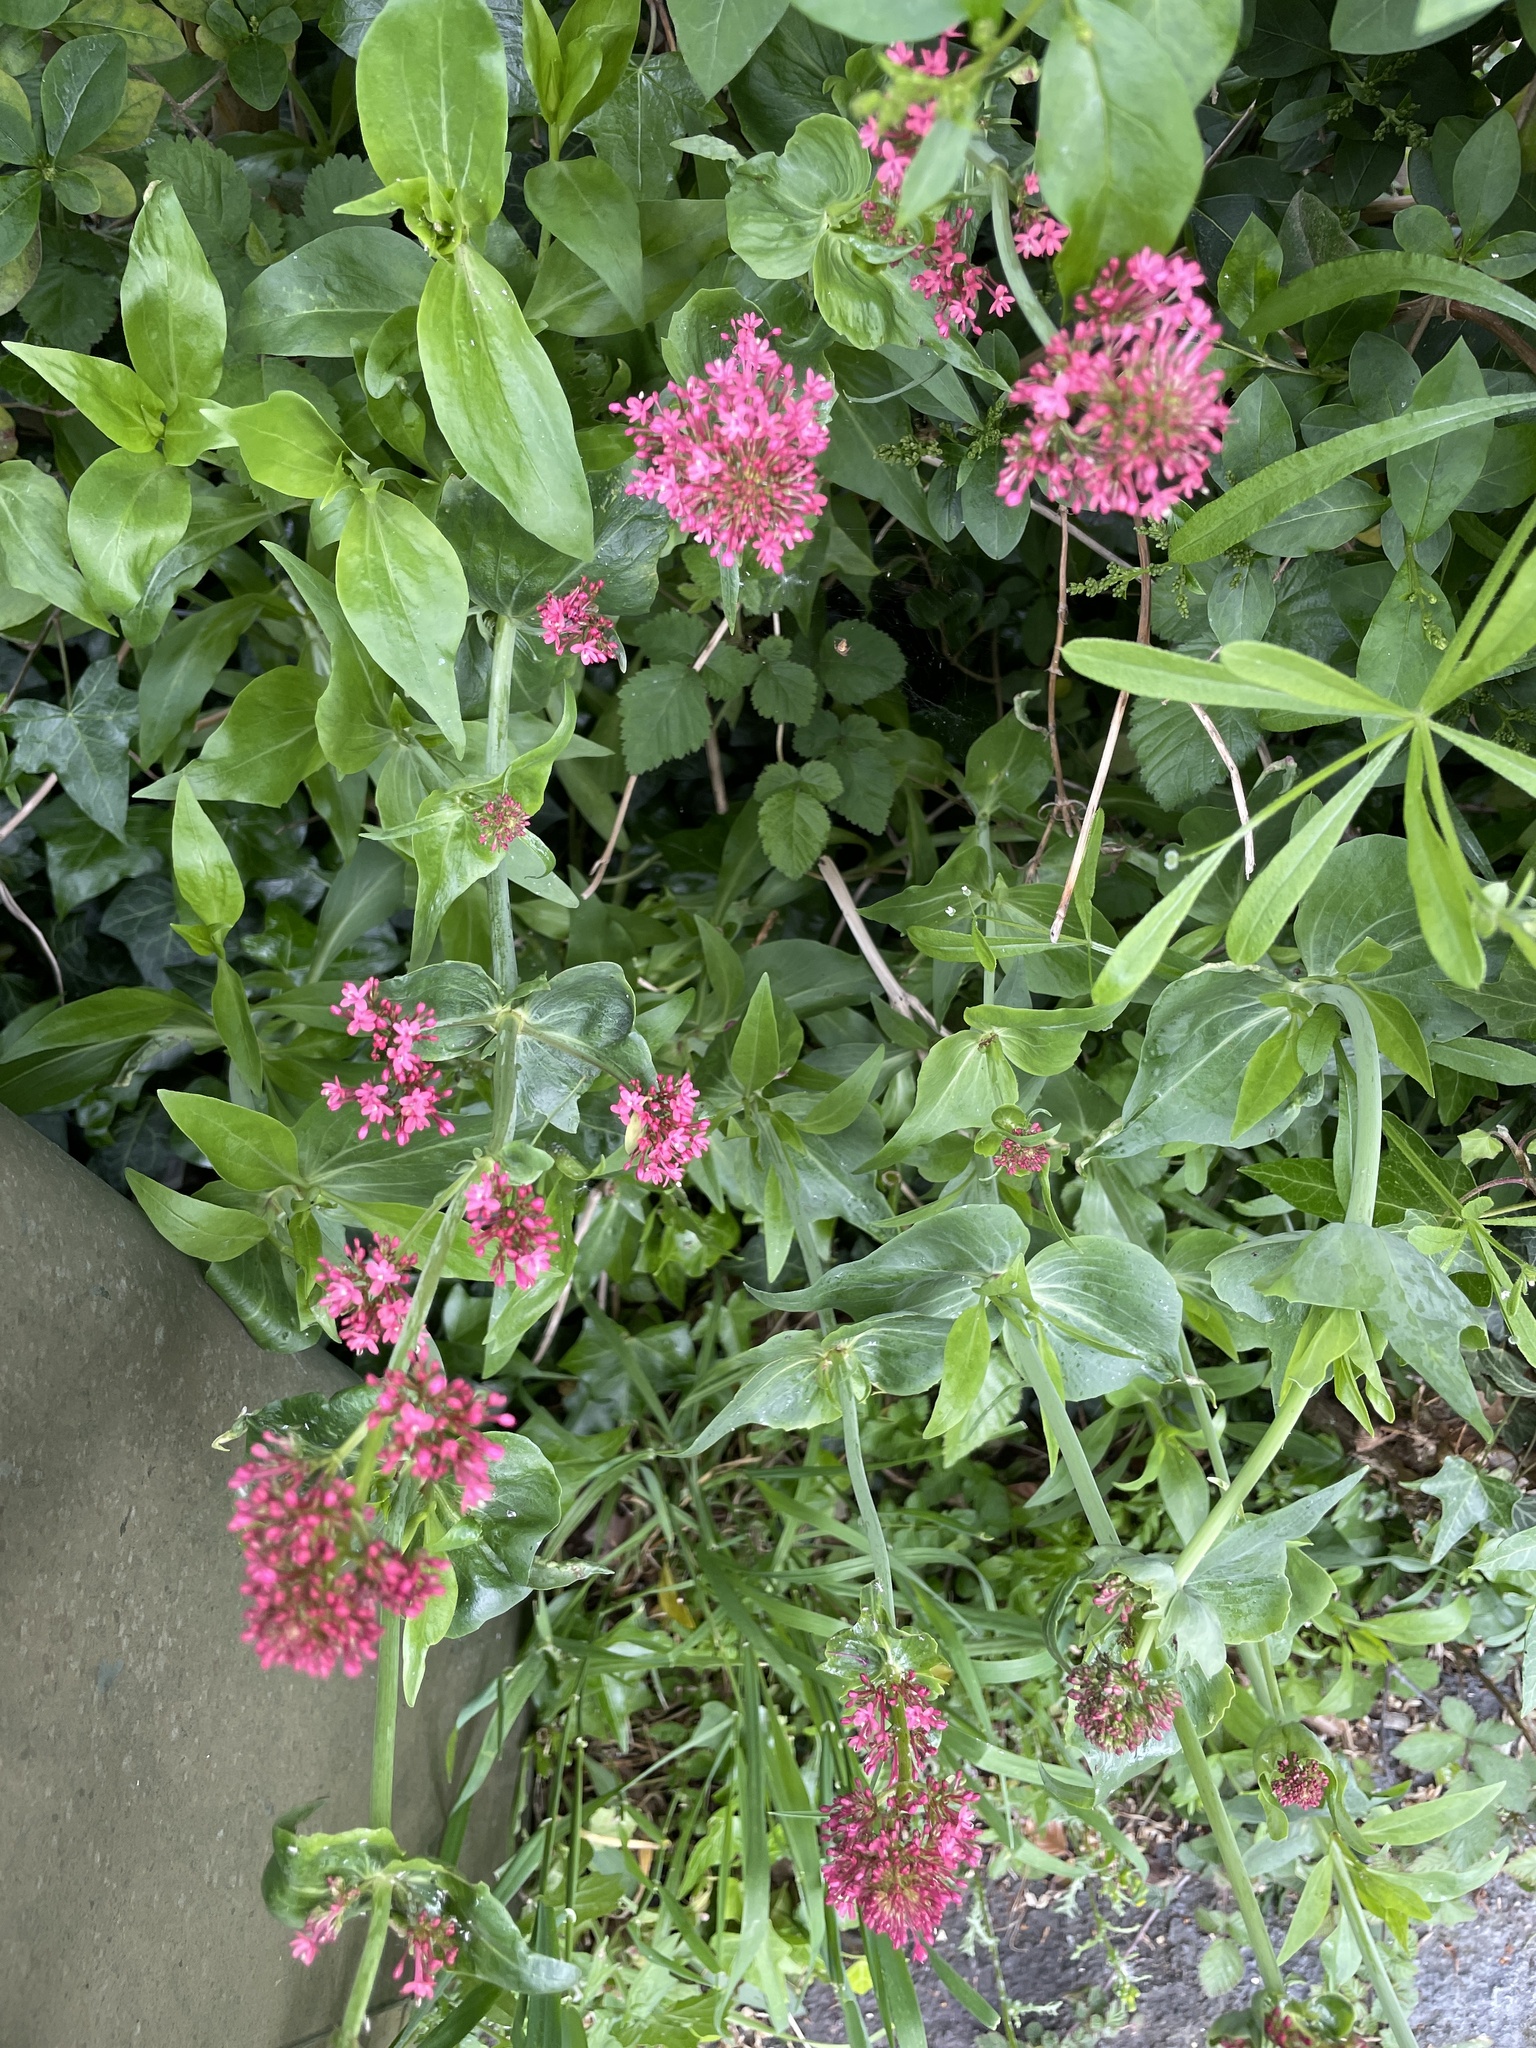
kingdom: Plantae
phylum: Tracheophyta
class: Magnoliopsida
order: Dipsacales
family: Caprifoliaceae
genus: Centranthus
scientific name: Centranthus ruber
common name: Red valerian
